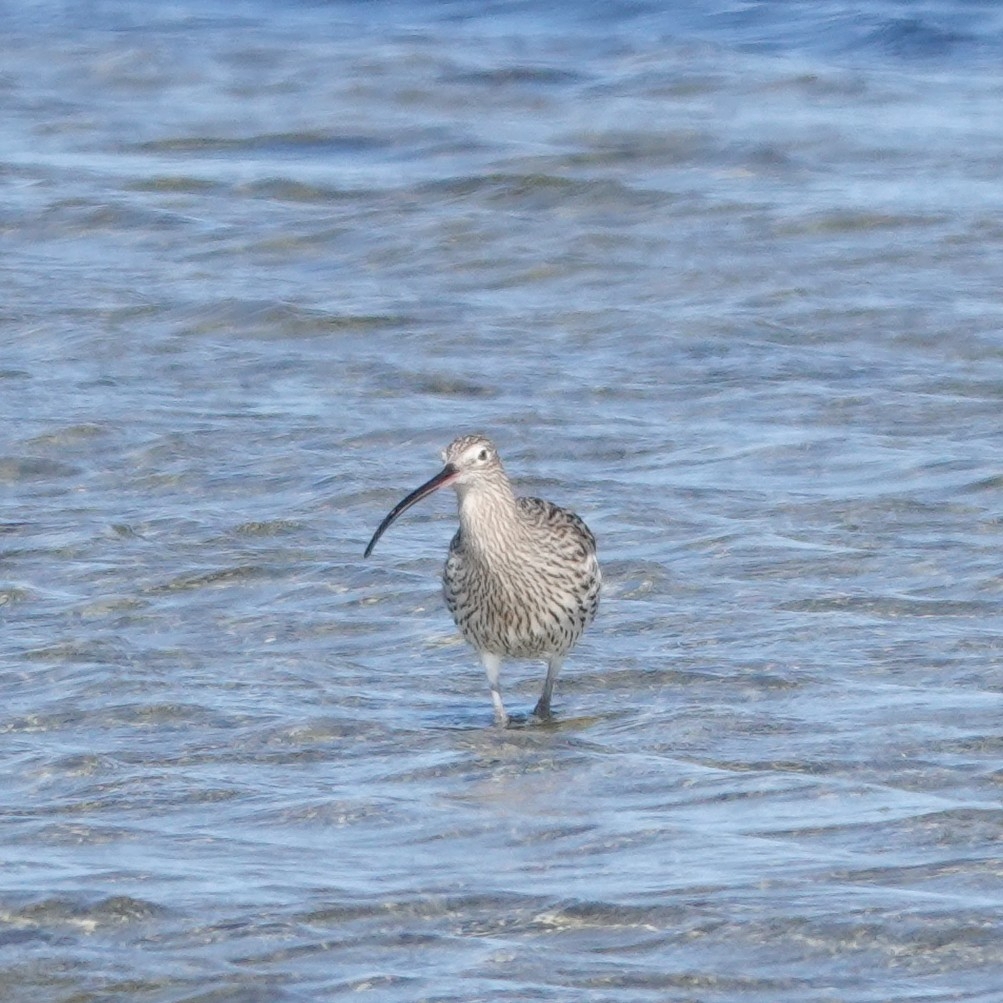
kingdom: Animalia
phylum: Chordata
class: Aves
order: Charadriiformes
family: Scolopacidae
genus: Numenius
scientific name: Numenius arquata
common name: Eurasian curlew
